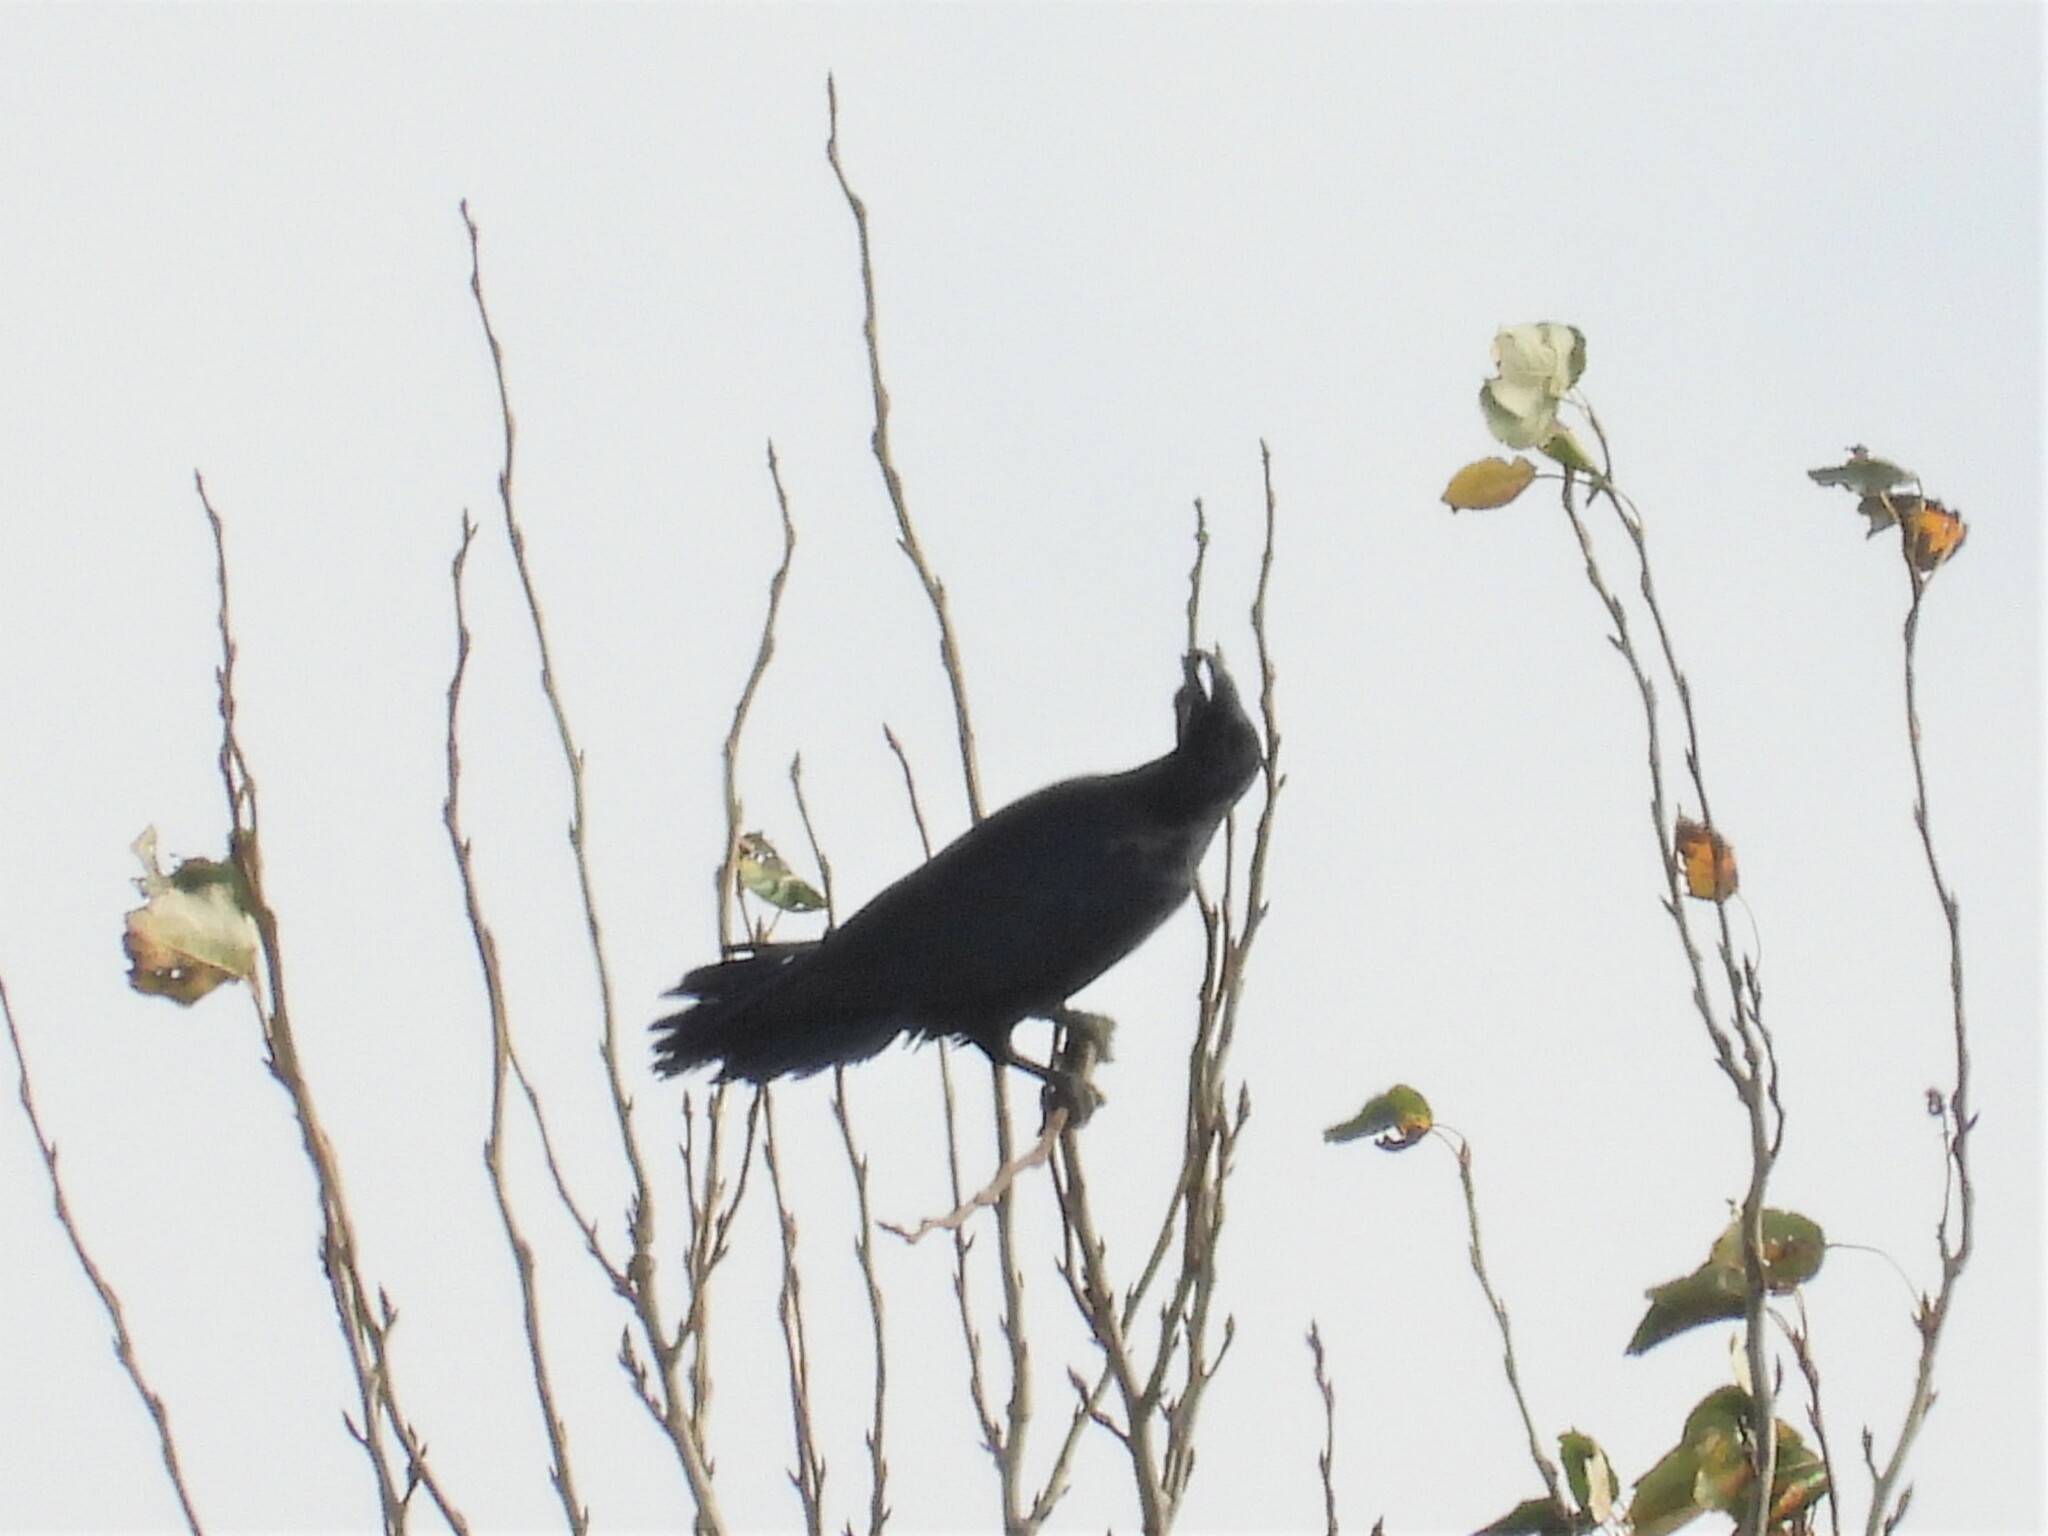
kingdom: Animalia
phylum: Chordata
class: Aves
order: Passeriformes
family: Corvidae
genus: Corvus
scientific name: Corvus corax
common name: Common raven
